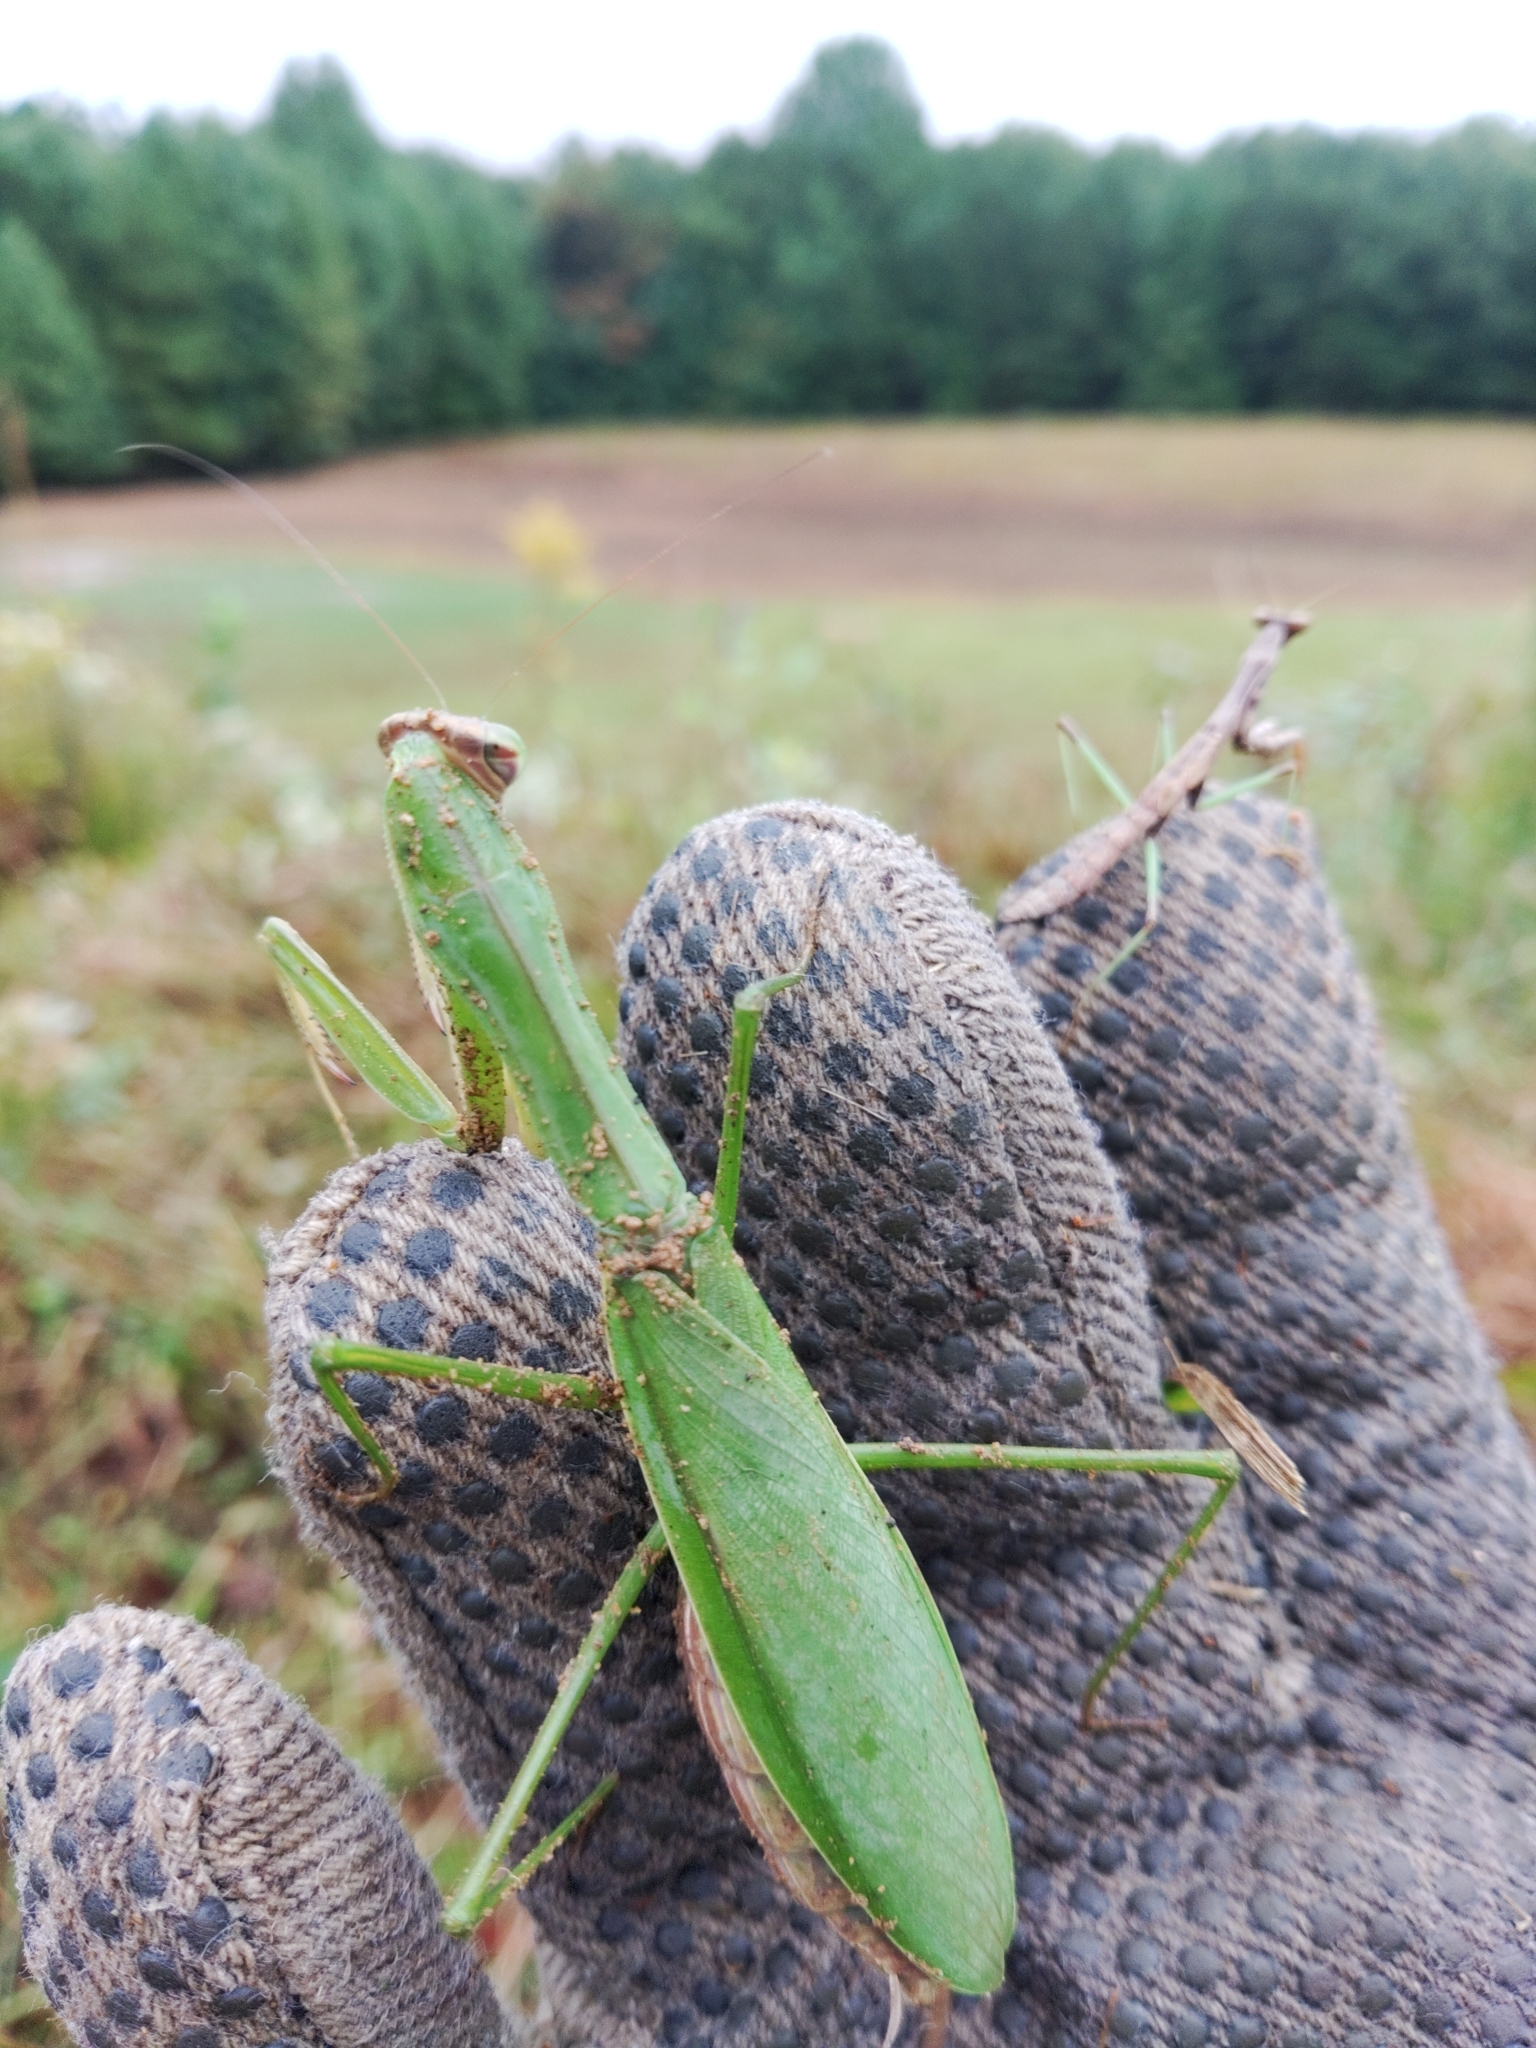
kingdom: Animalia
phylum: Arthropoda
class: Insecta
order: Mantodea
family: Mantidae
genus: Tenodera
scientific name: Tenodera sinensis
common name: Chinese mantis
